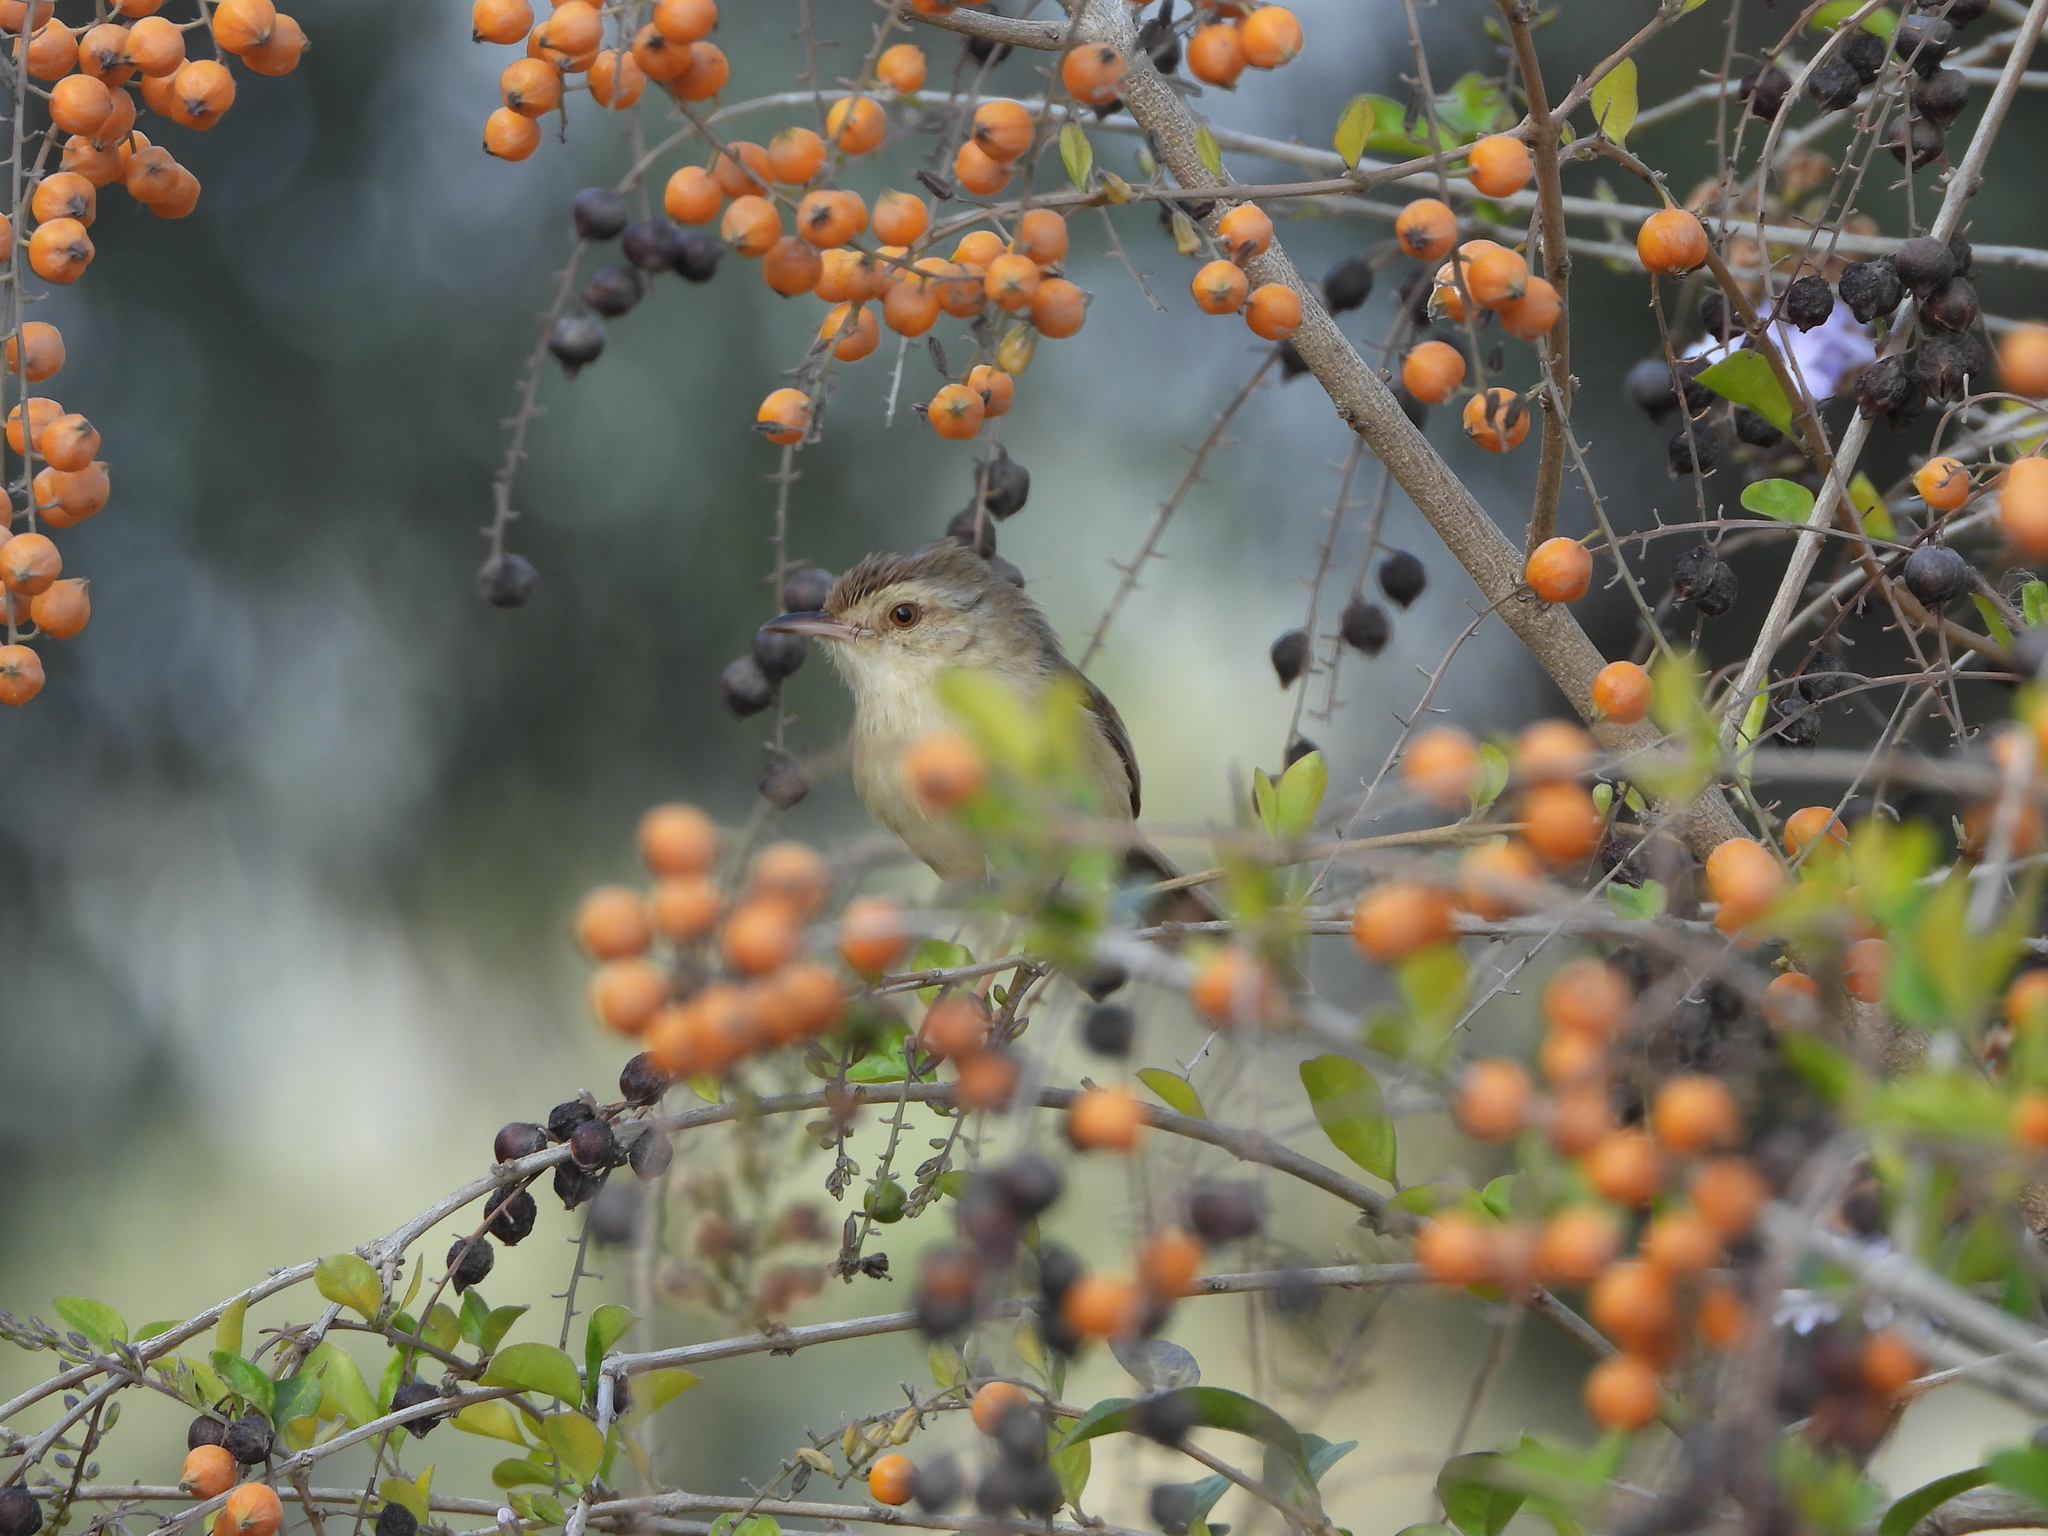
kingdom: Animalia
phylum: Chordata
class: Aves
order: Passeriformes
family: Cisticolidae
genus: Prinia
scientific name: Prinia inornata
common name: Plain prinia
